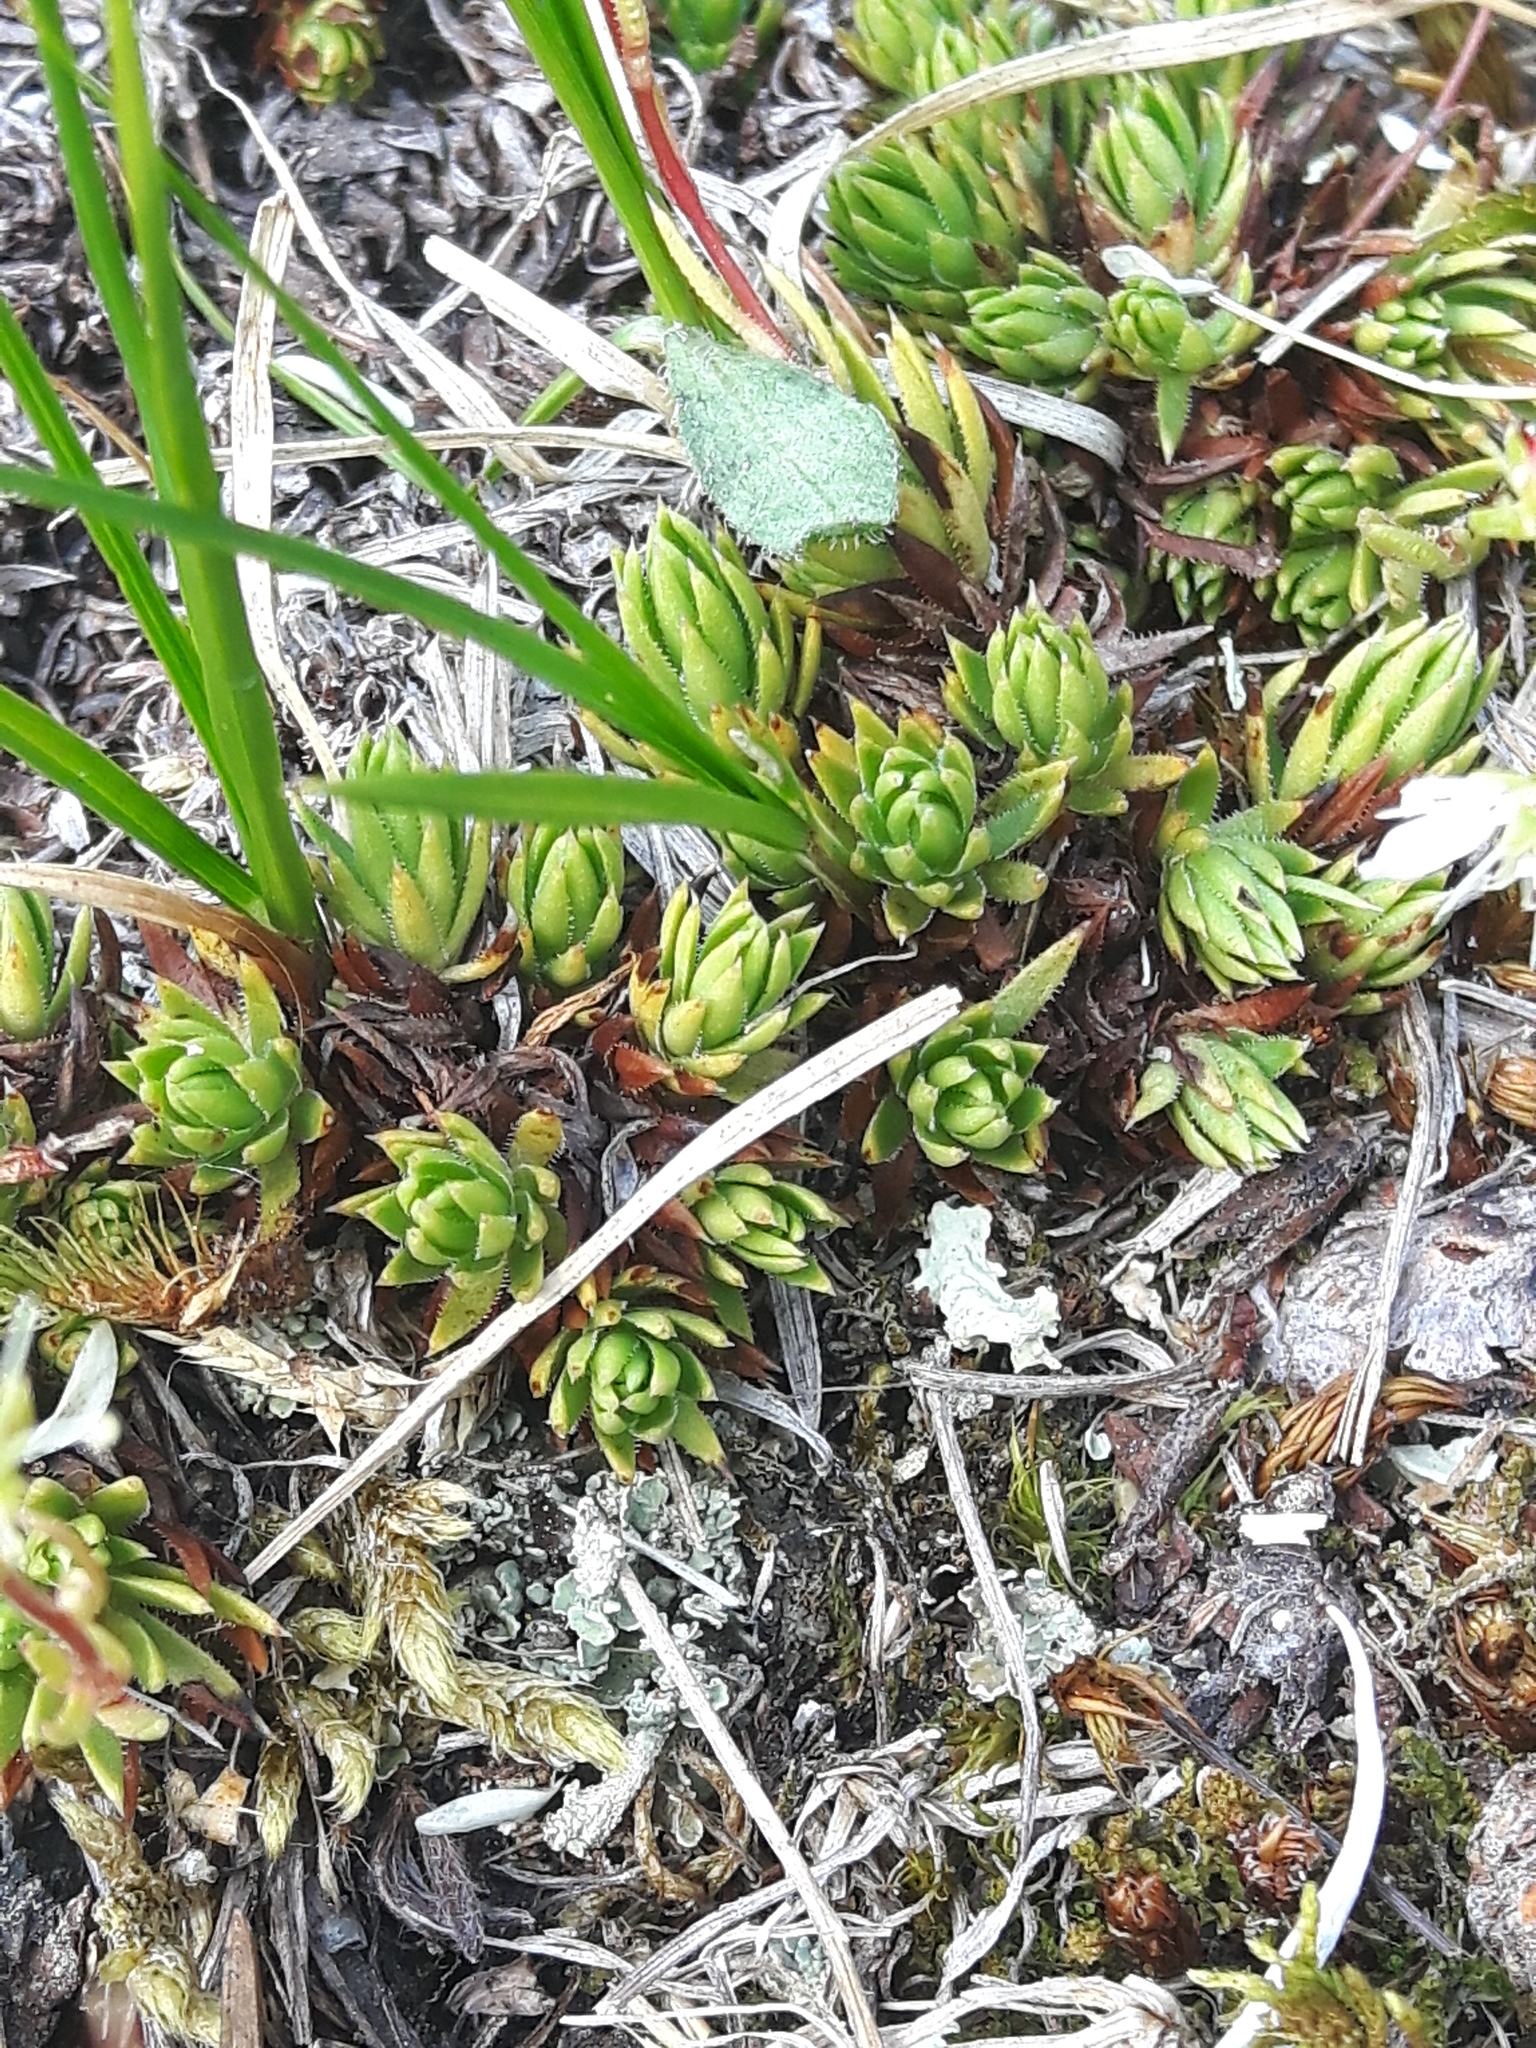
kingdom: Plantae
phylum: Tracheophyta
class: Magnoliopsida
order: Saxifragales
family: Saxifragaceae
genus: Saxifraga
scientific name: Saxifraga bronchialis
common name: Matted saxifrage
